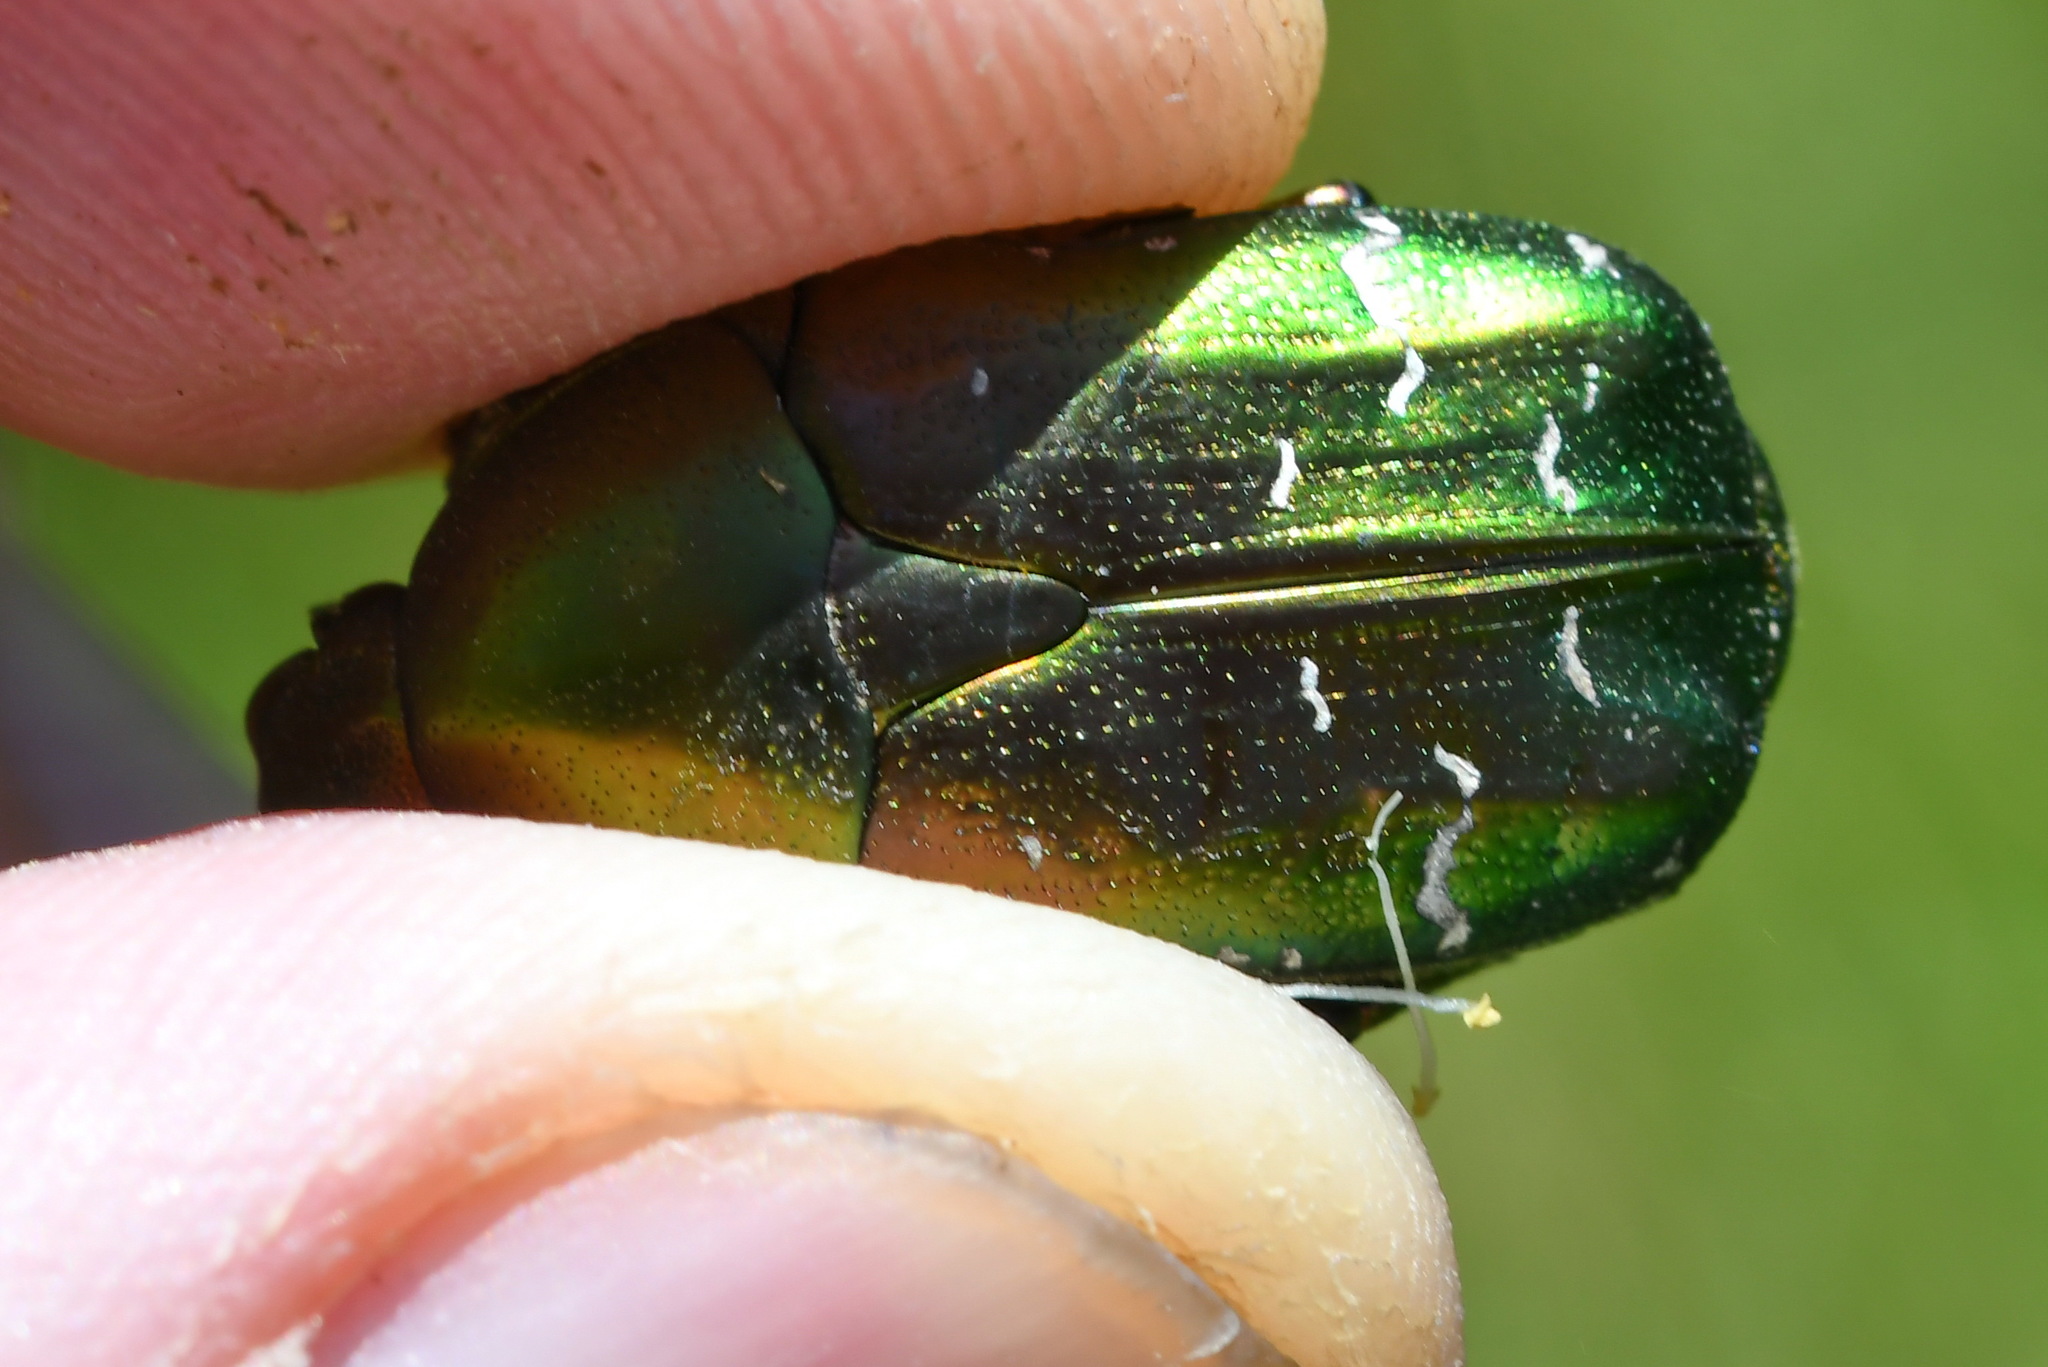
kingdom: Animalia
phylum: Arthropoda
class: Insecta
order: Coleoptera
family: Scarabaeidae
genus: Cetonia
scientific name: Cetonia aurata
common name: Rose chafer
